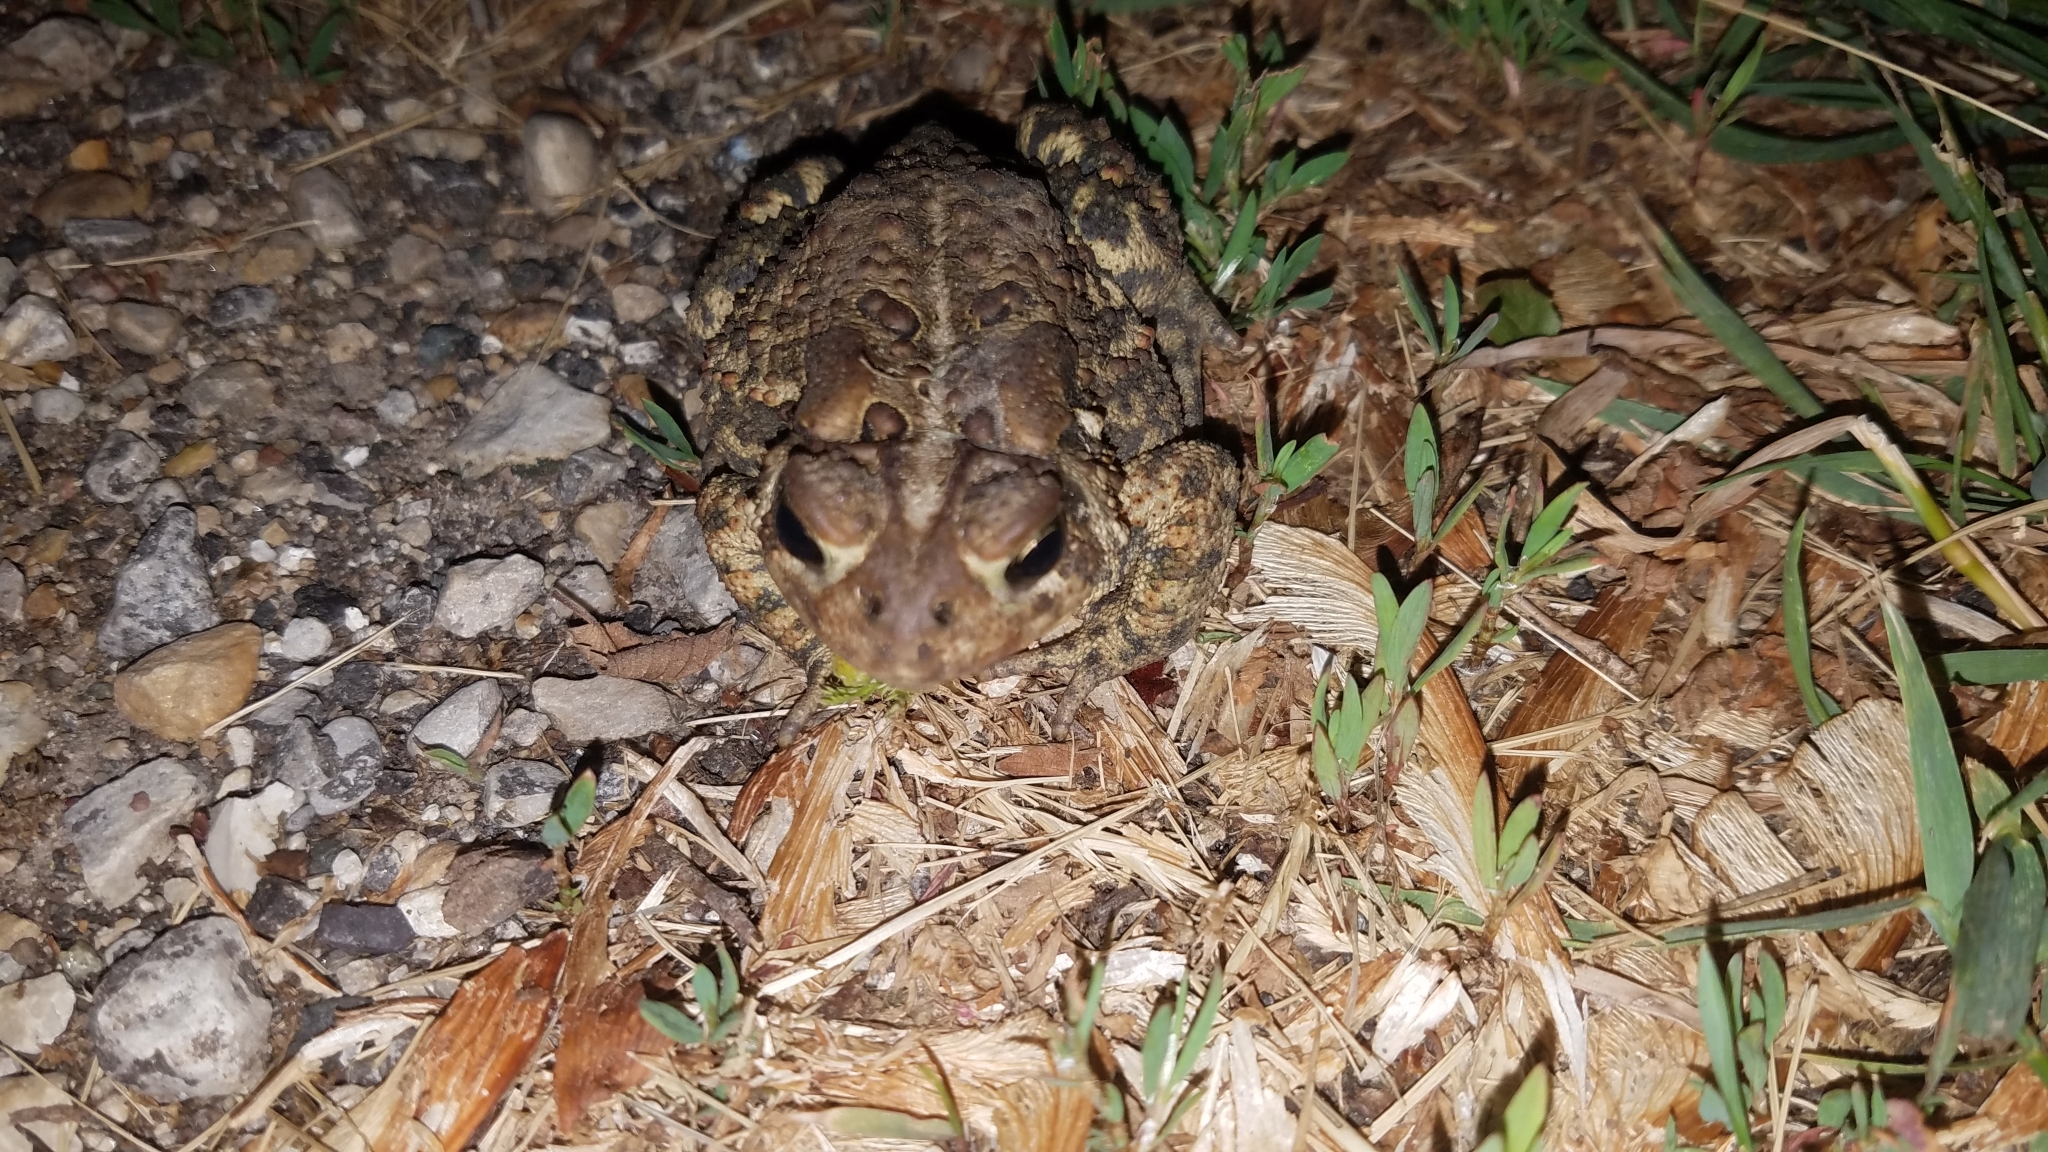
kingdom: Animalia
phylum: Chordata
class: Amphibia
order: Anura
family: Bufonidae
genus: Anaxyrus
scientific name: Anaxyrus americanus
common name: American toad
